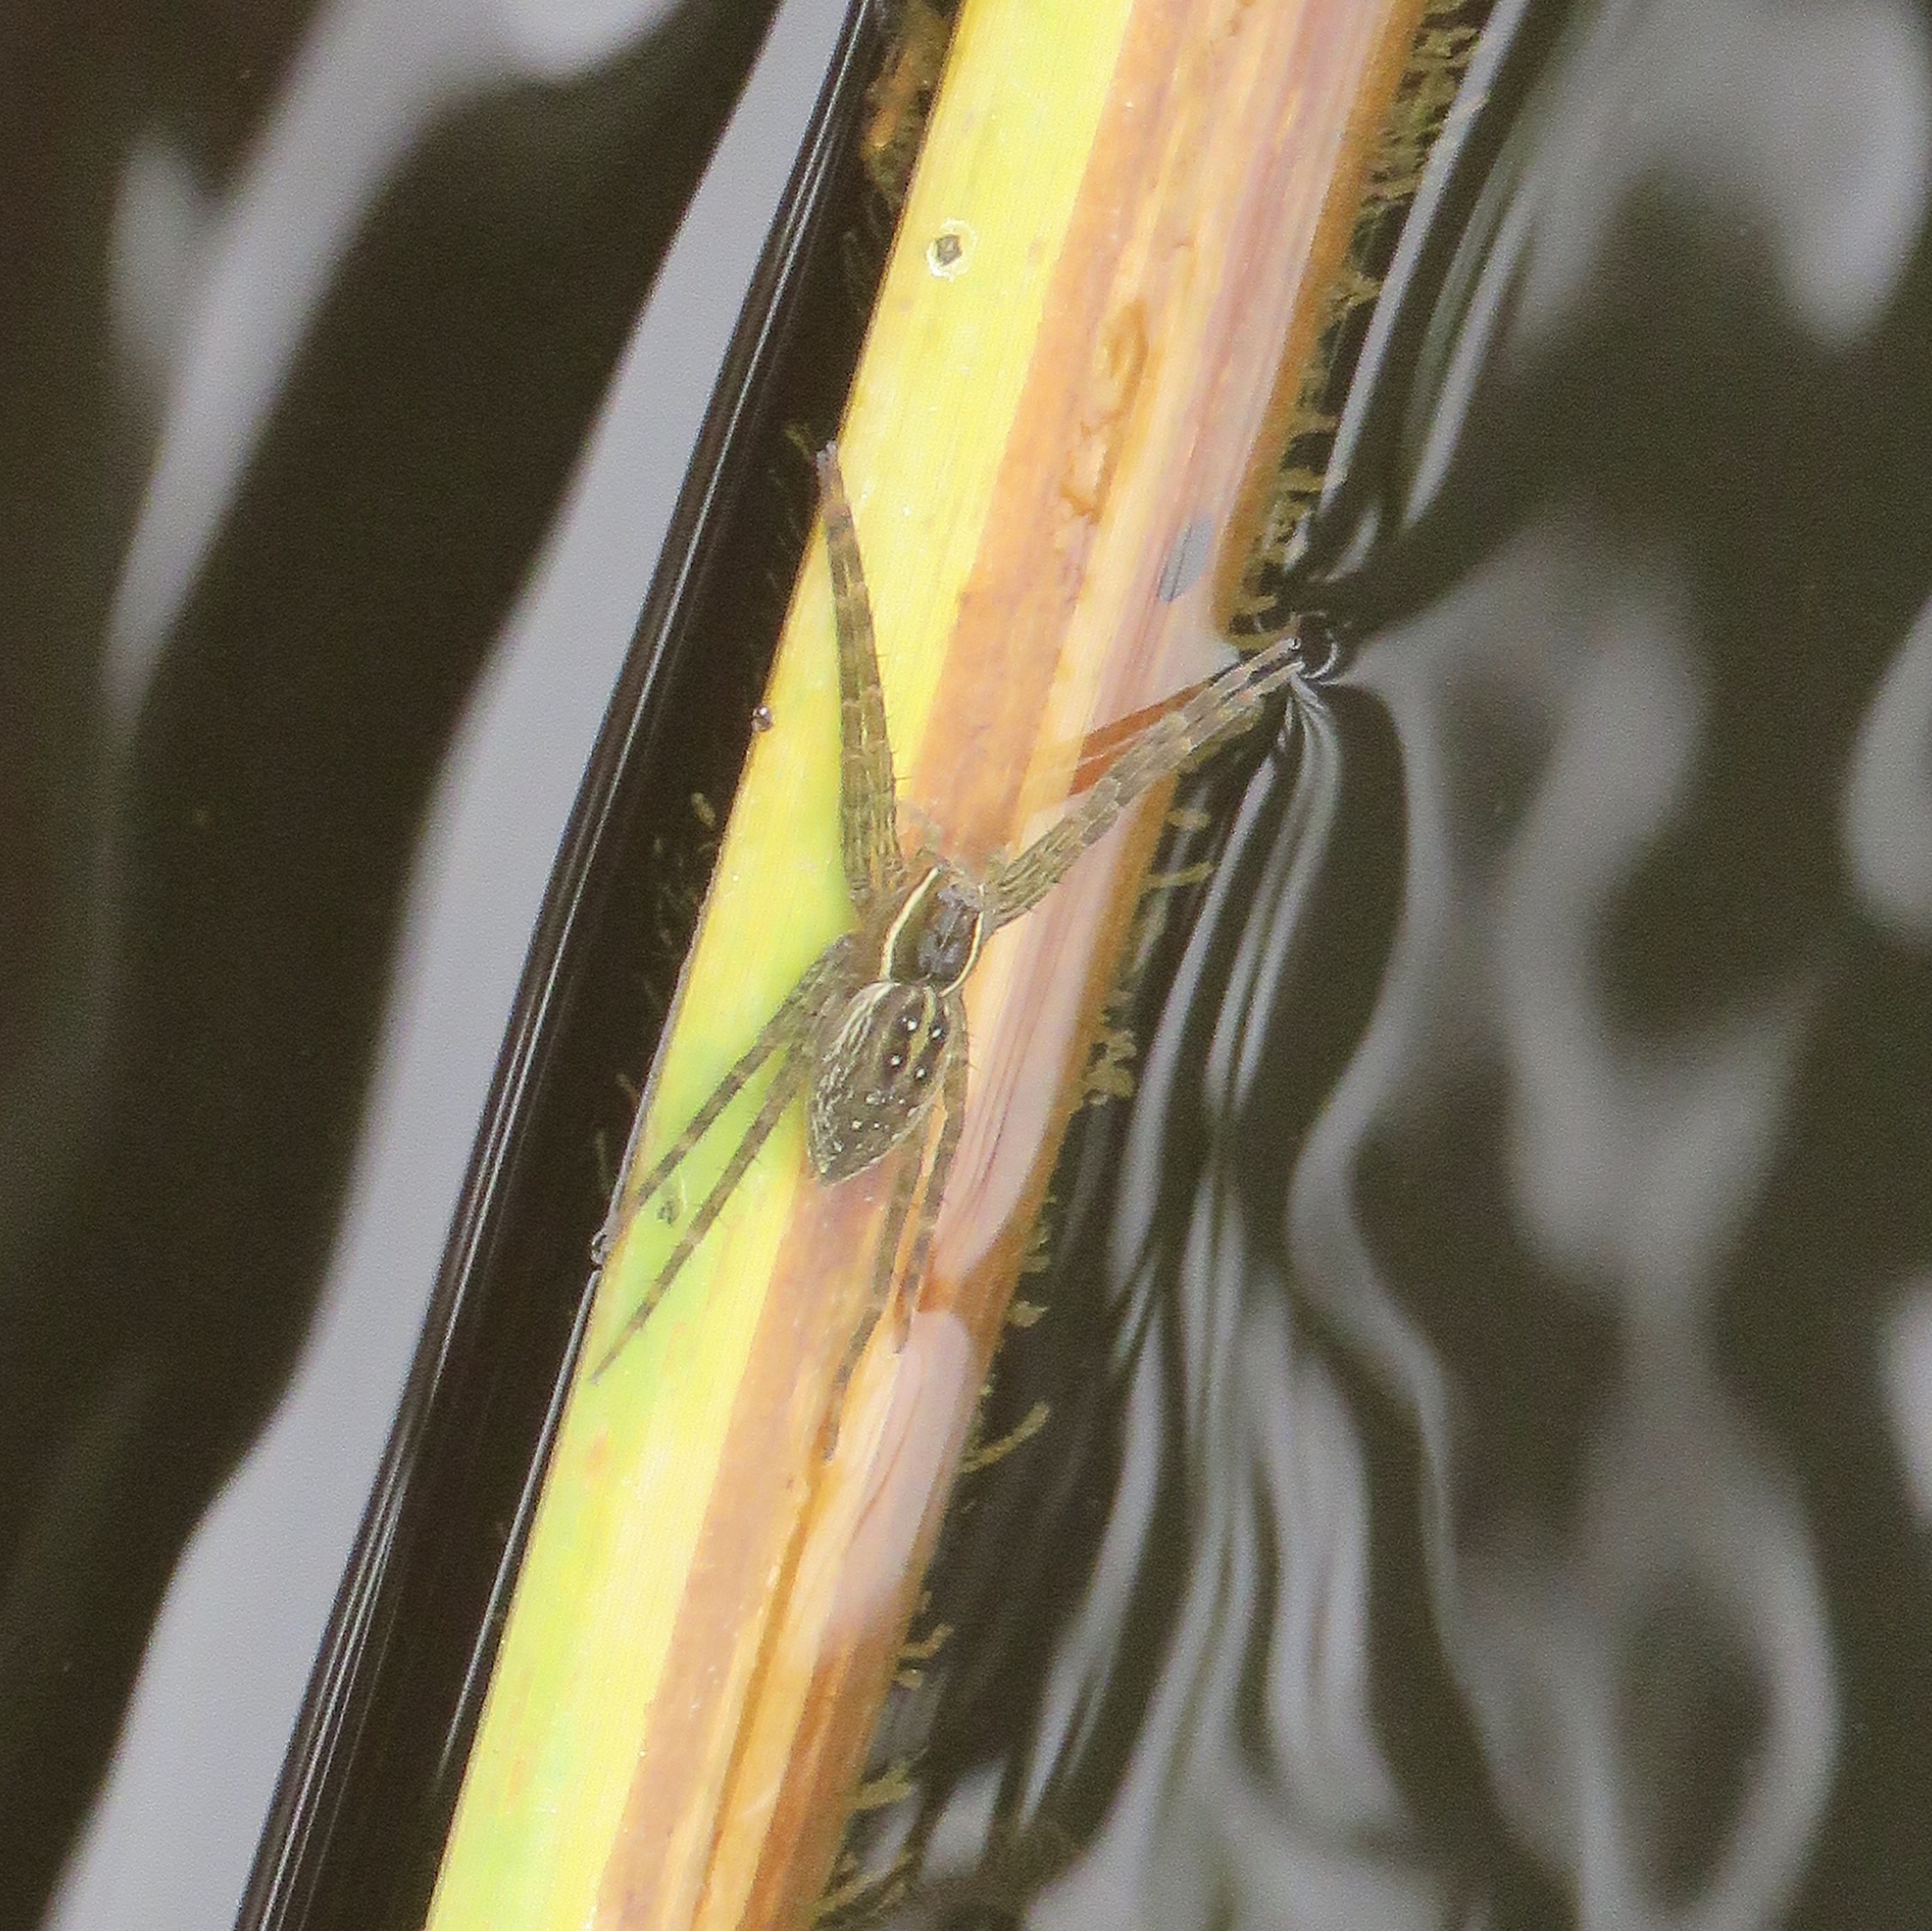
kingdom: Animalia
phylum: Arthropoda
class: Arachnida
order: Araneae
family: Pisauridae
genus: Dolomedes
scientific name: Dolomedes triton
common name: Six-spotted fishing spider
